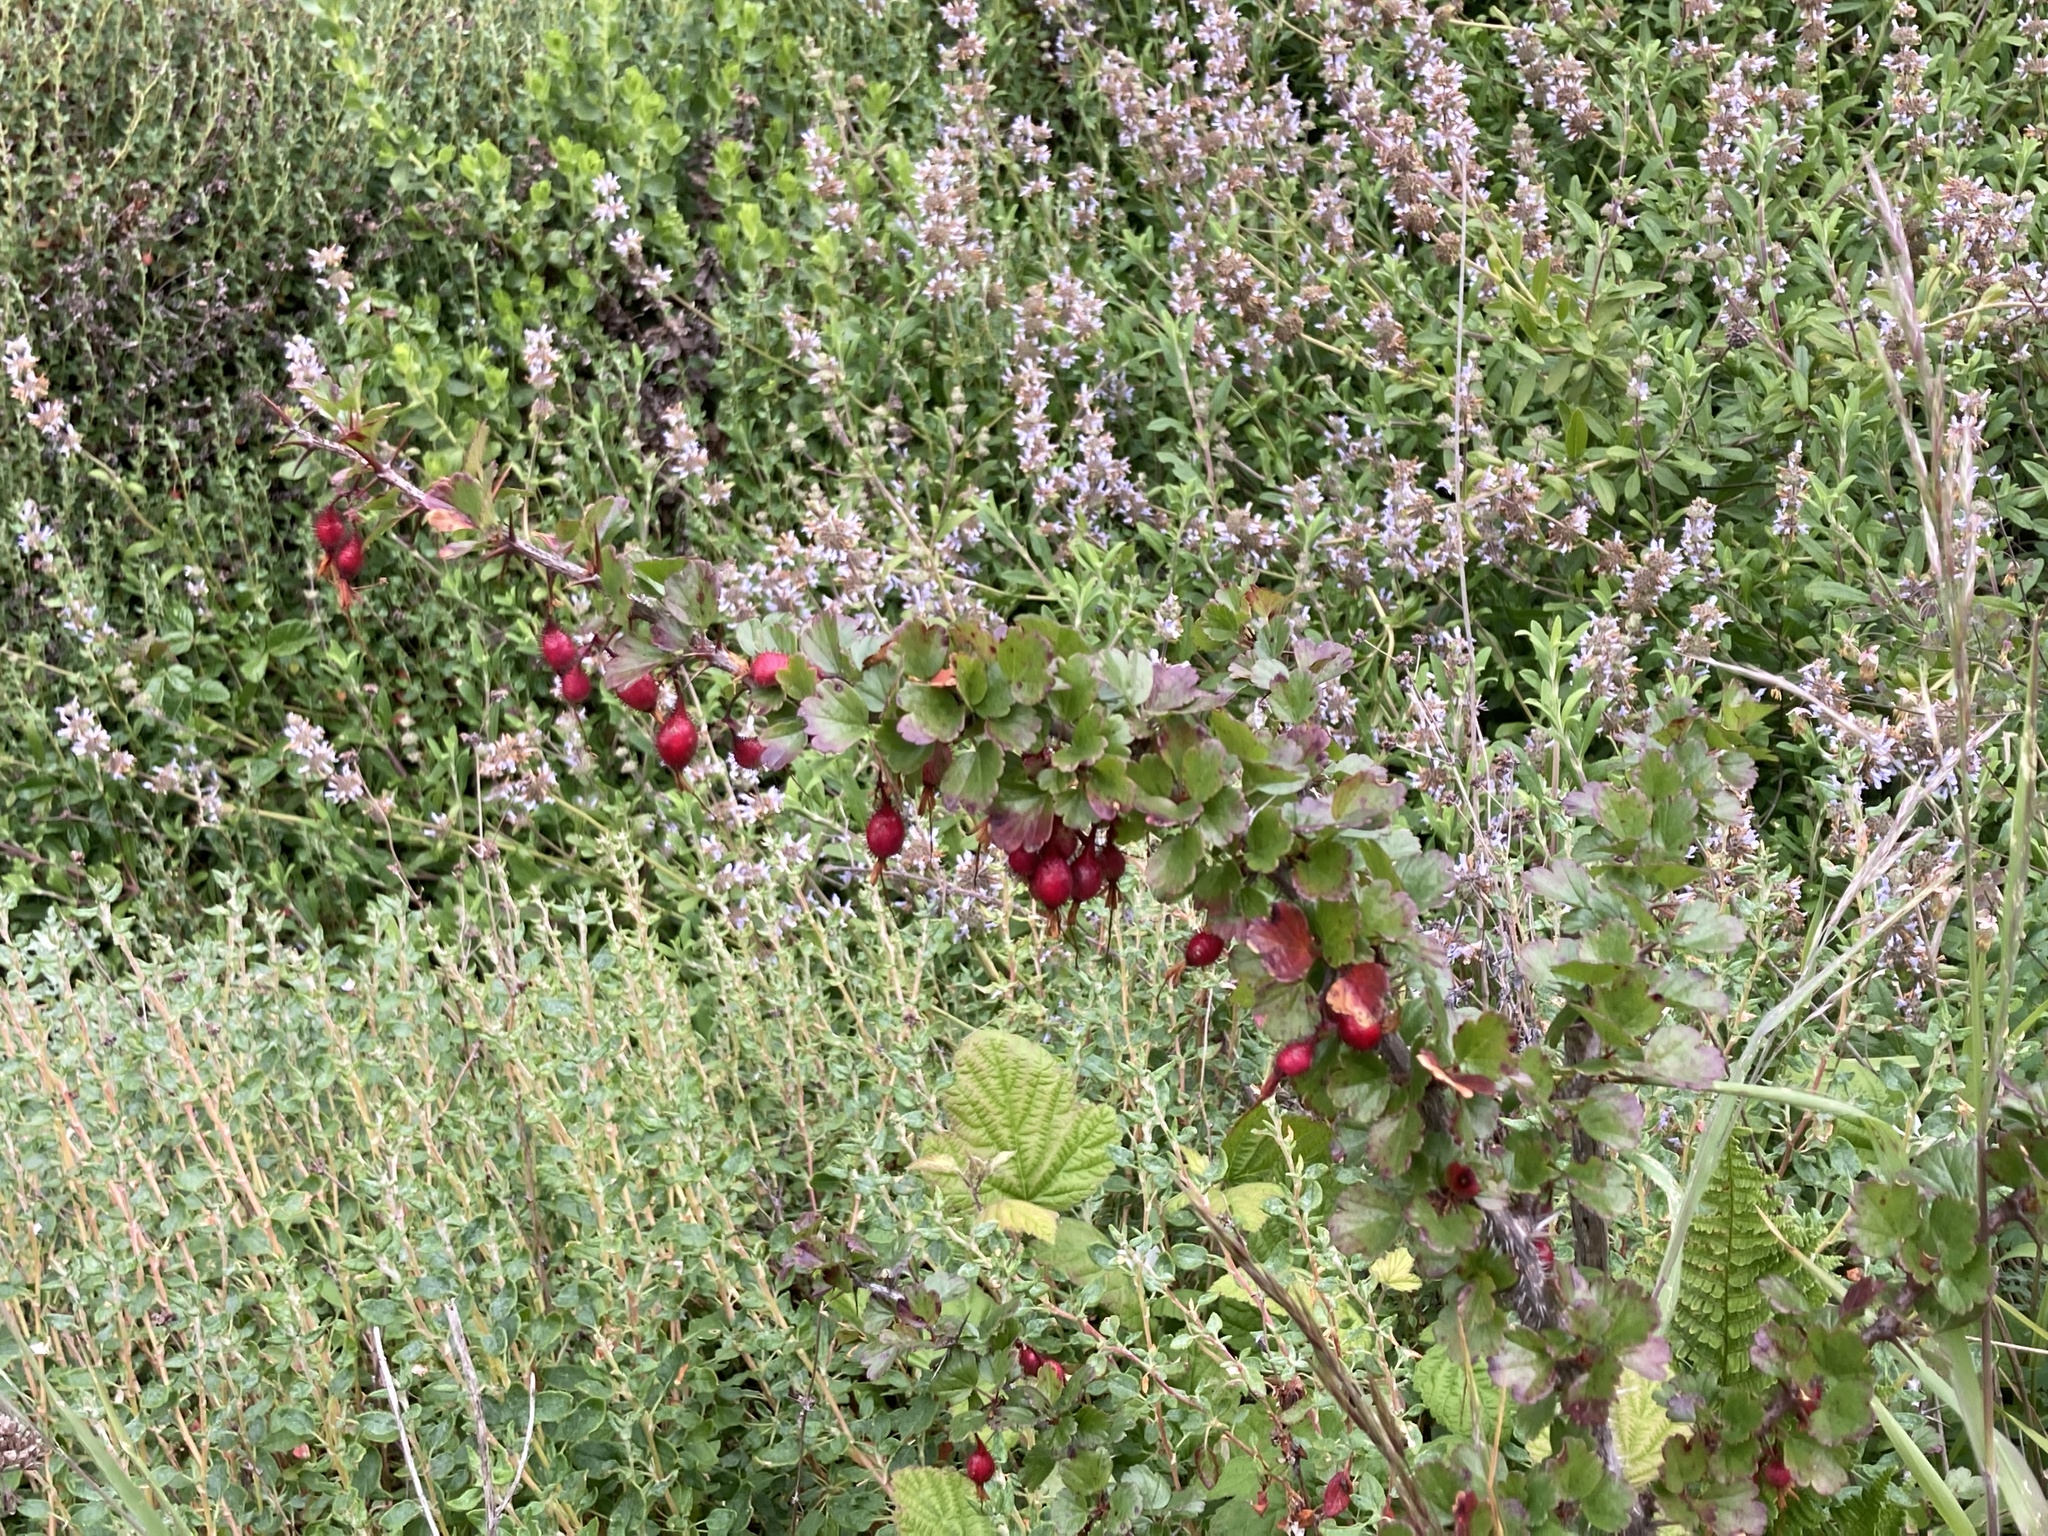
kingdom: Plantae
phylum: Tracheophyta
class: Magnoliopsida
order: Saxifragales
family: Grossulariaceae
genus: Ribes
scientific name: Ribes speciosum
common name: Fuchsia-flower gooseberry
